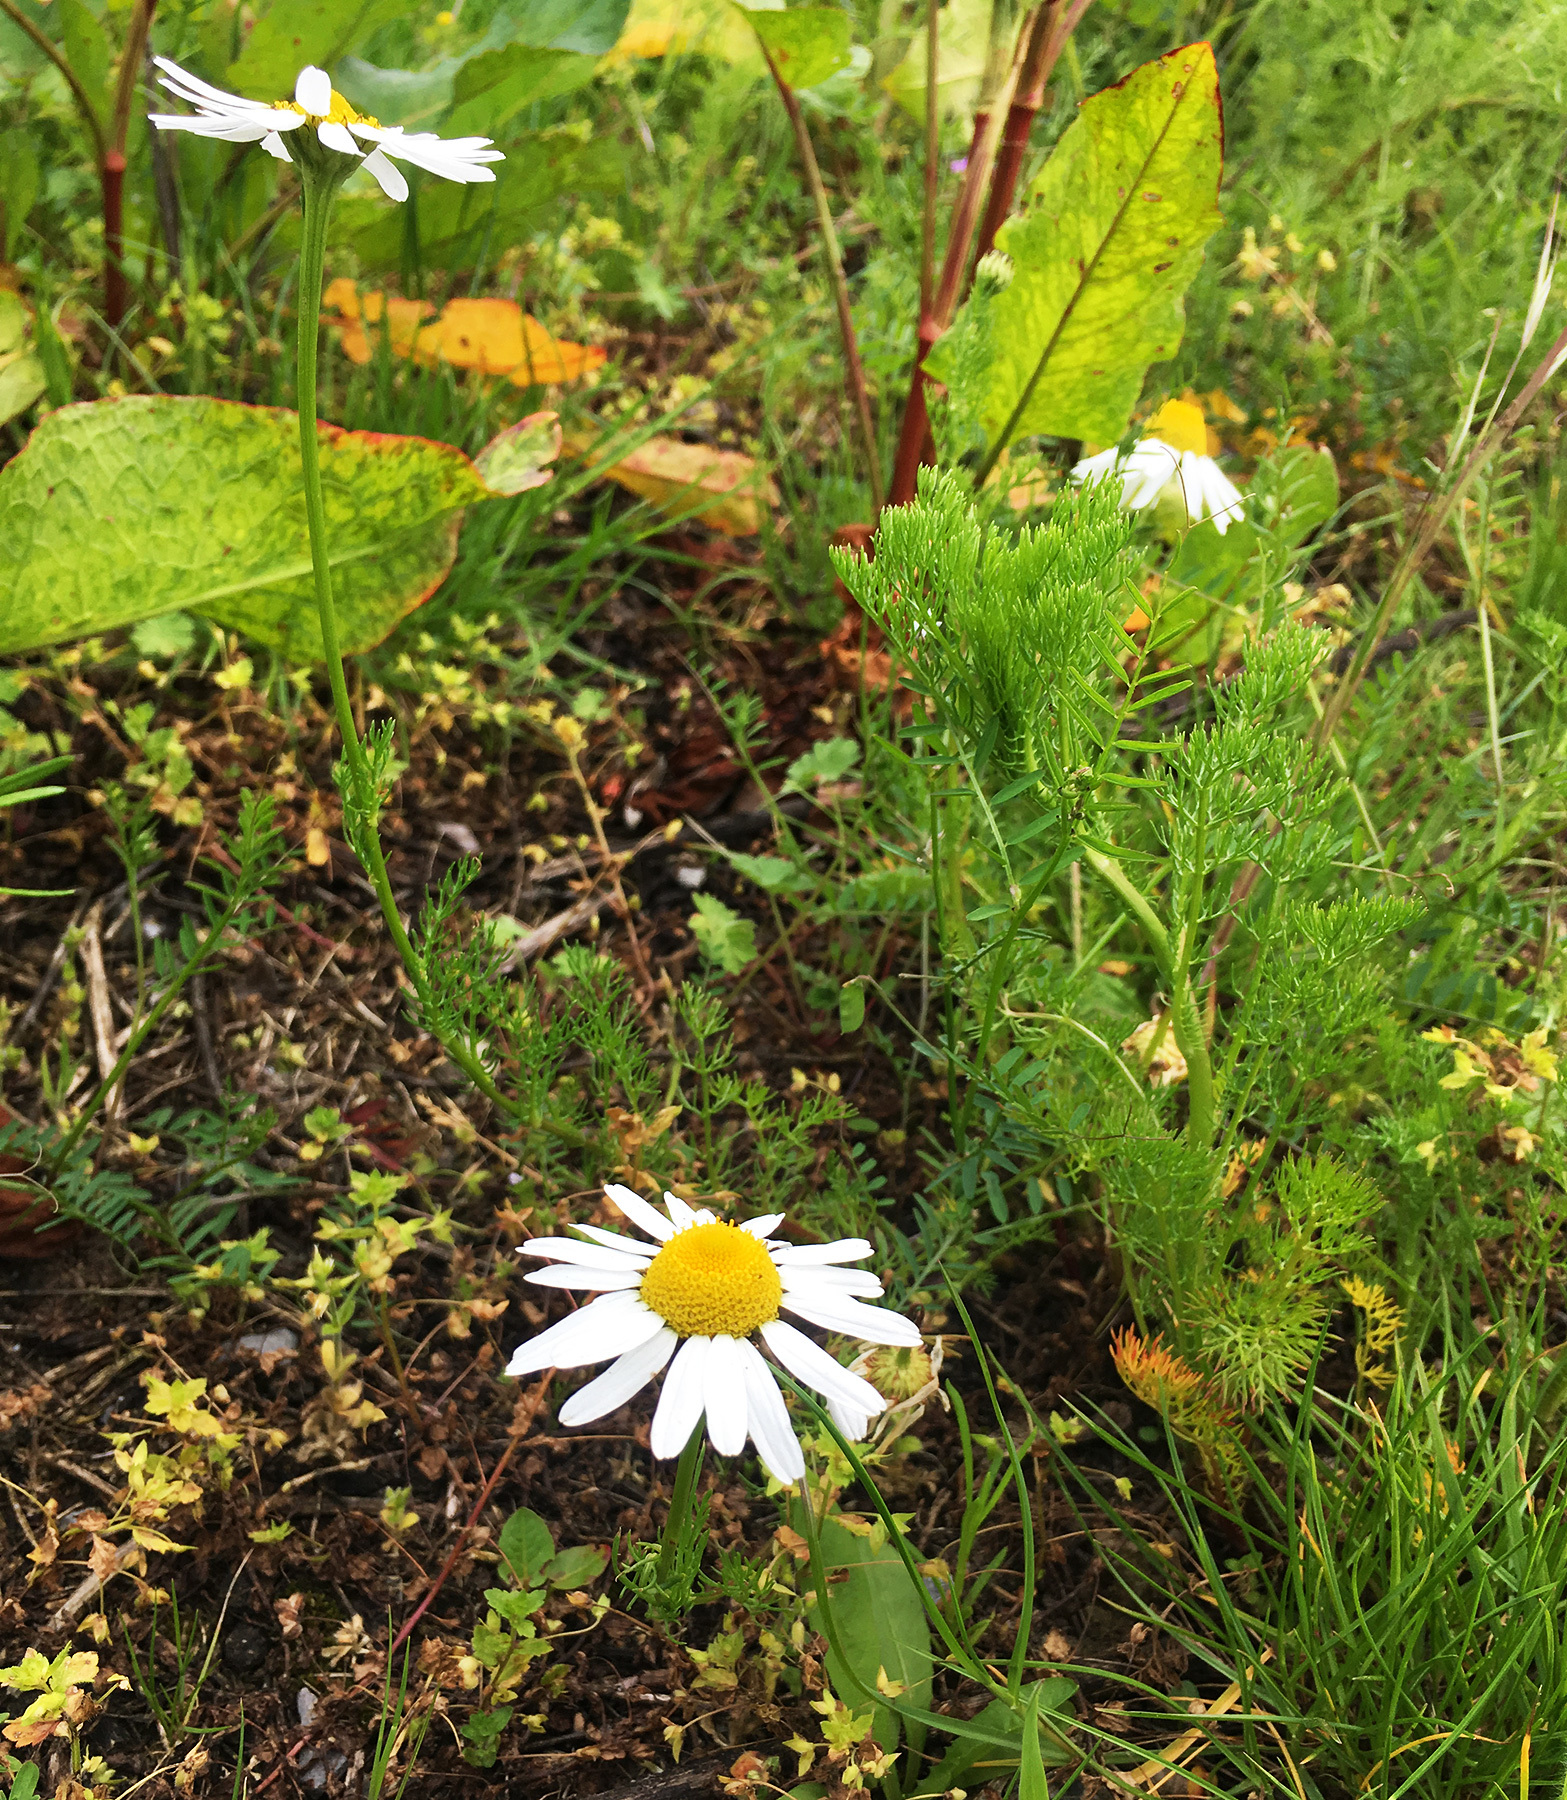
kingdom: Plantae
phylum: Tracheophyta
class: Magnoliopsida
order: Asterales
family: Asteraceae
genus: Tripleurospermum
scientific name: Tripleurospermum inodorum
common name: Scentless mayweed
